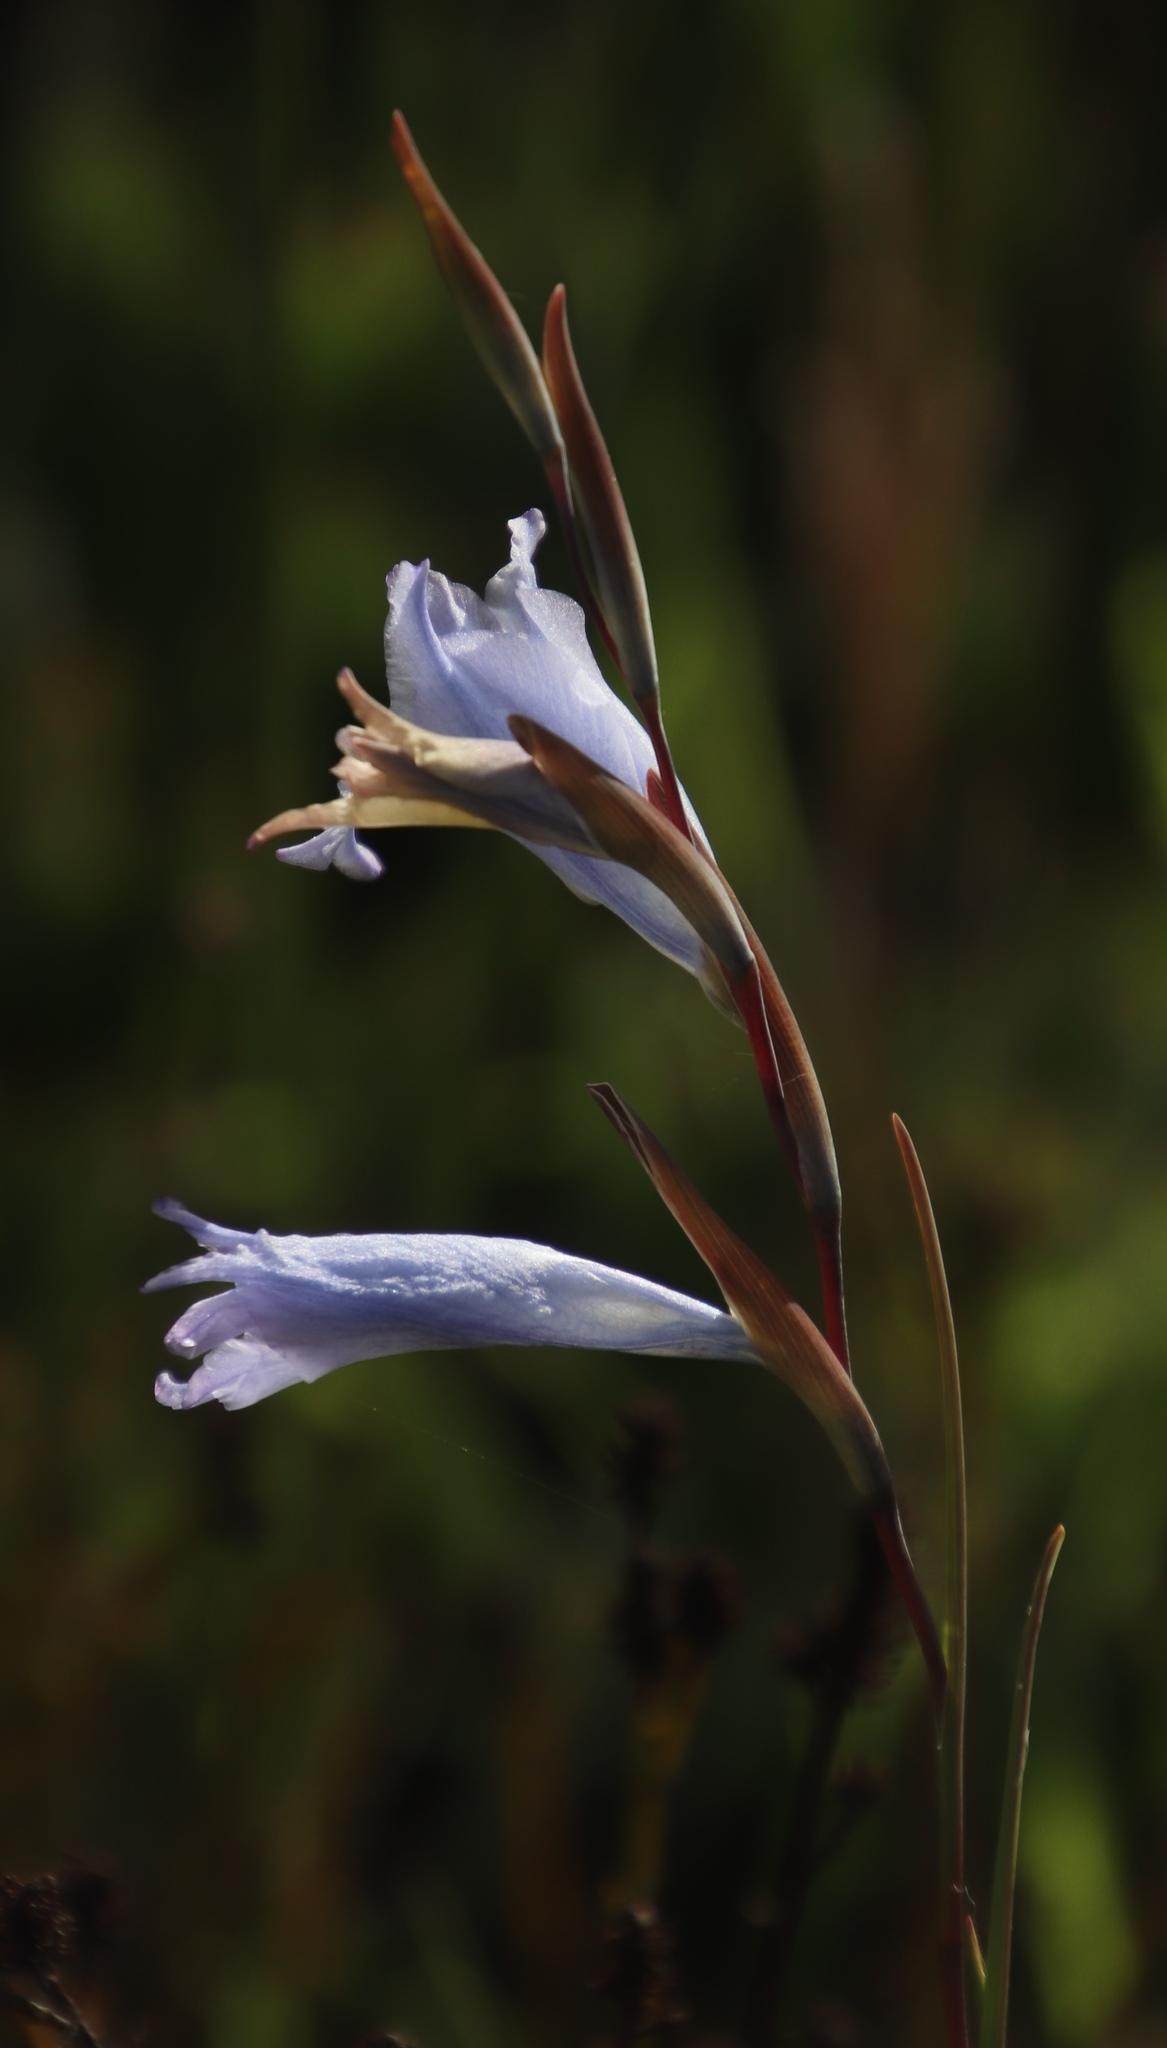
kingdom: Plantae
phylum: Tracheophyta
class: Liliopsida
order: Asparagales
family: Iridaceae
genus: Gladiolus
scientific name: Gladiolus gracilis
